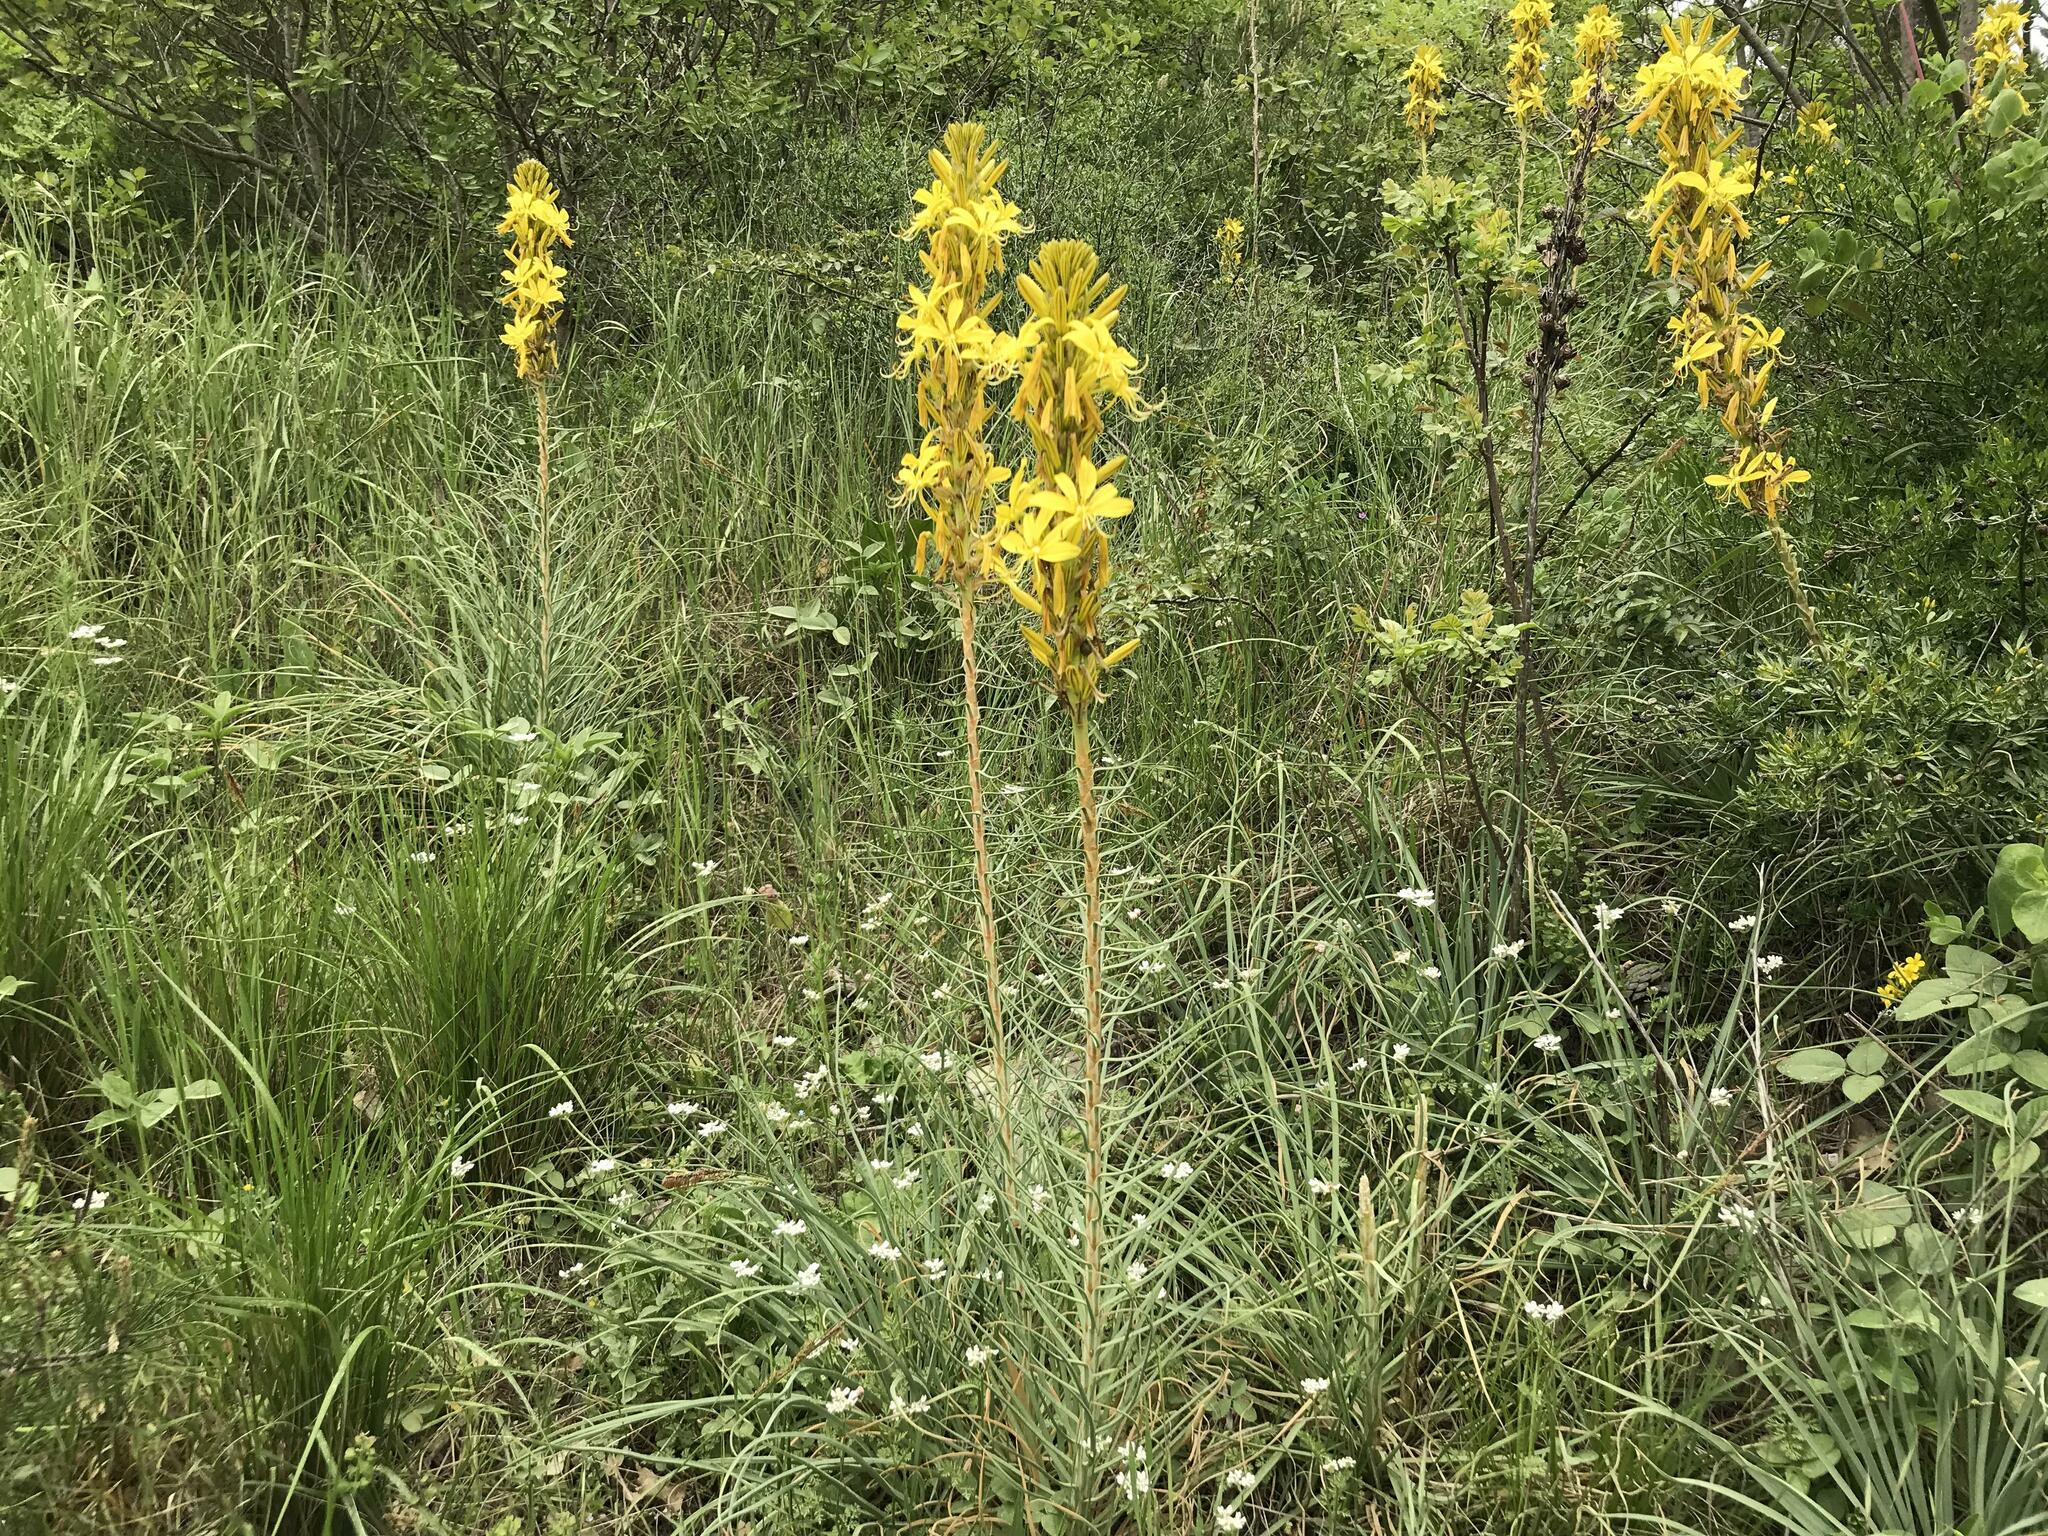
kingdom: Plantae
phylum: Tracheophyta
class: Liliopsida
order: Asparagales
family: Asphodelaceae
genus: Asphodeline
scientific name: Asphodeline lutea
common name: Yellow asphodel
